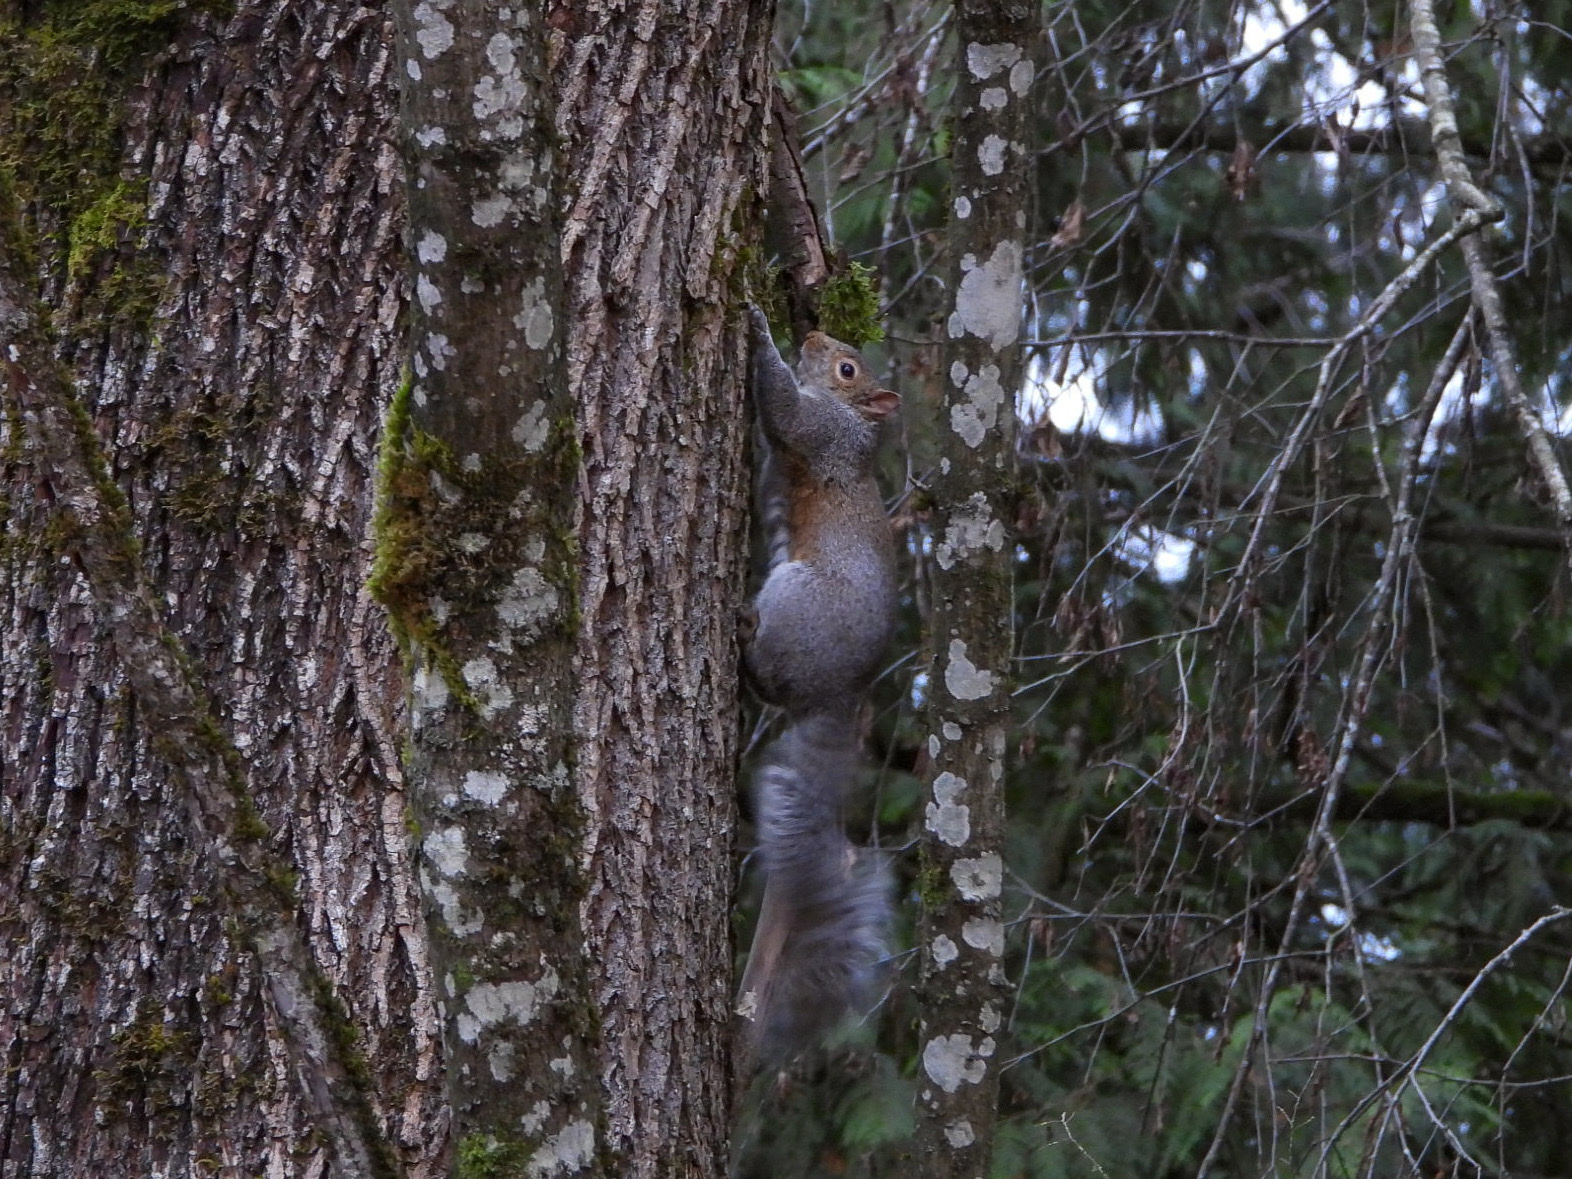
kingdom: Animalia
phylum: Chordata
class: Mammalia
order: Rodentia
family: Sciuridae
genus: Sciurus
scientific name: Sciurus carolinensis
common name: Eastern gray squirrel
